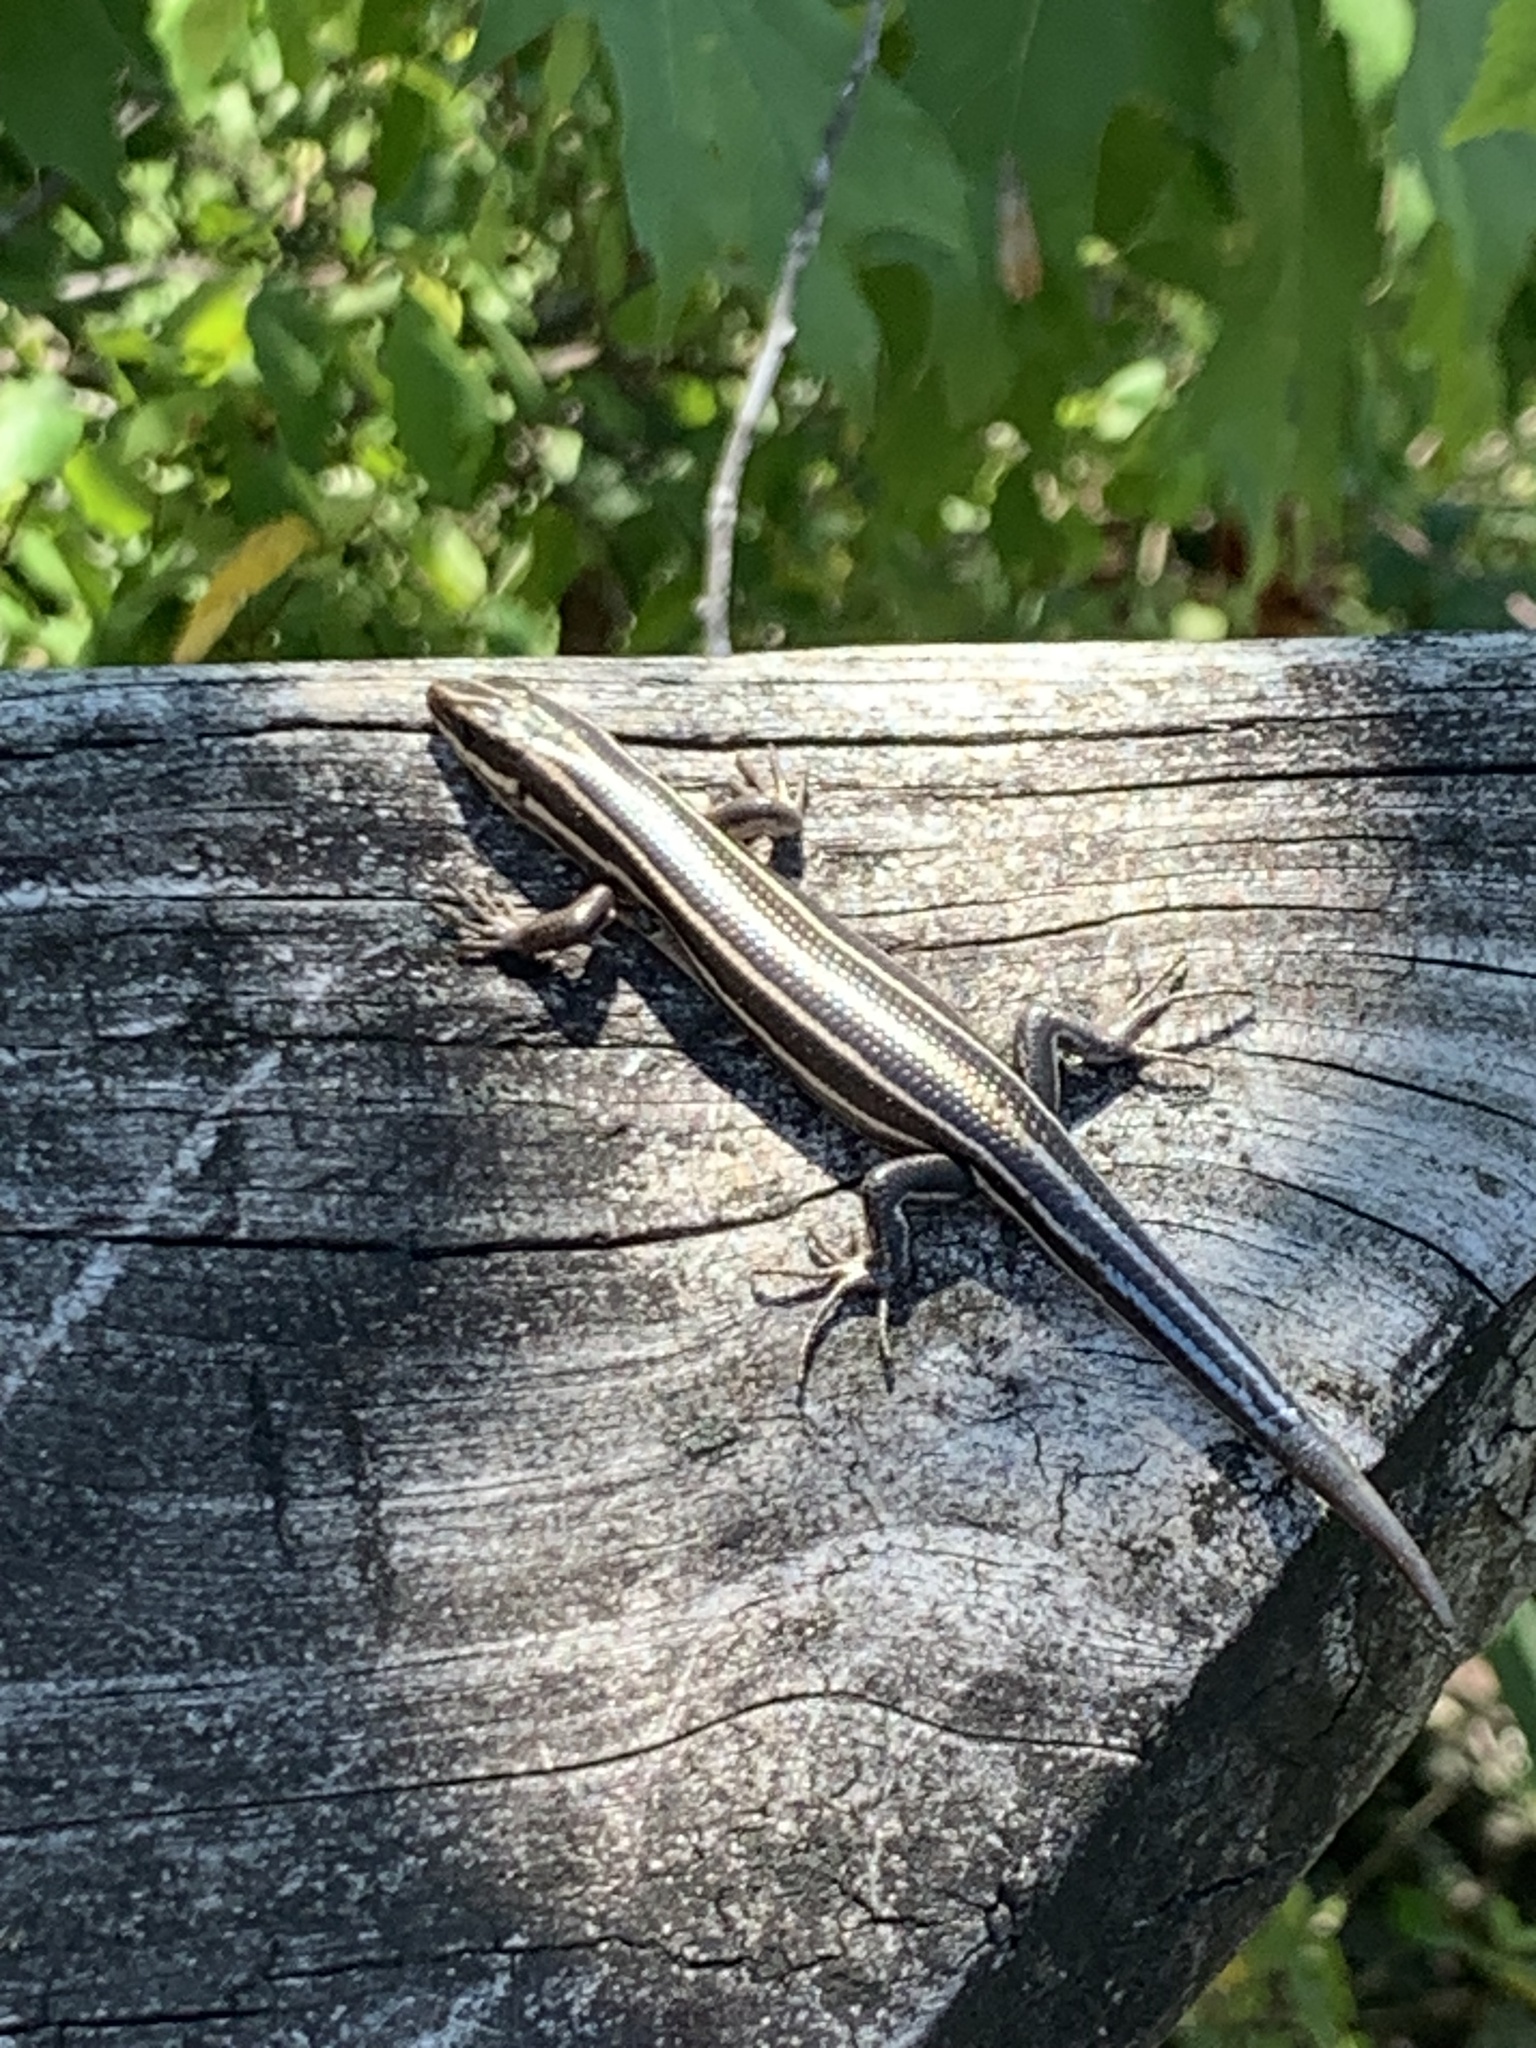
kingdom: Animalia
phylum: Chordata
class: Squamata
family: Scincidae
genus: Plestiodon
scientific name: Plestiodon fasciatus
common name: Five-lined skink
